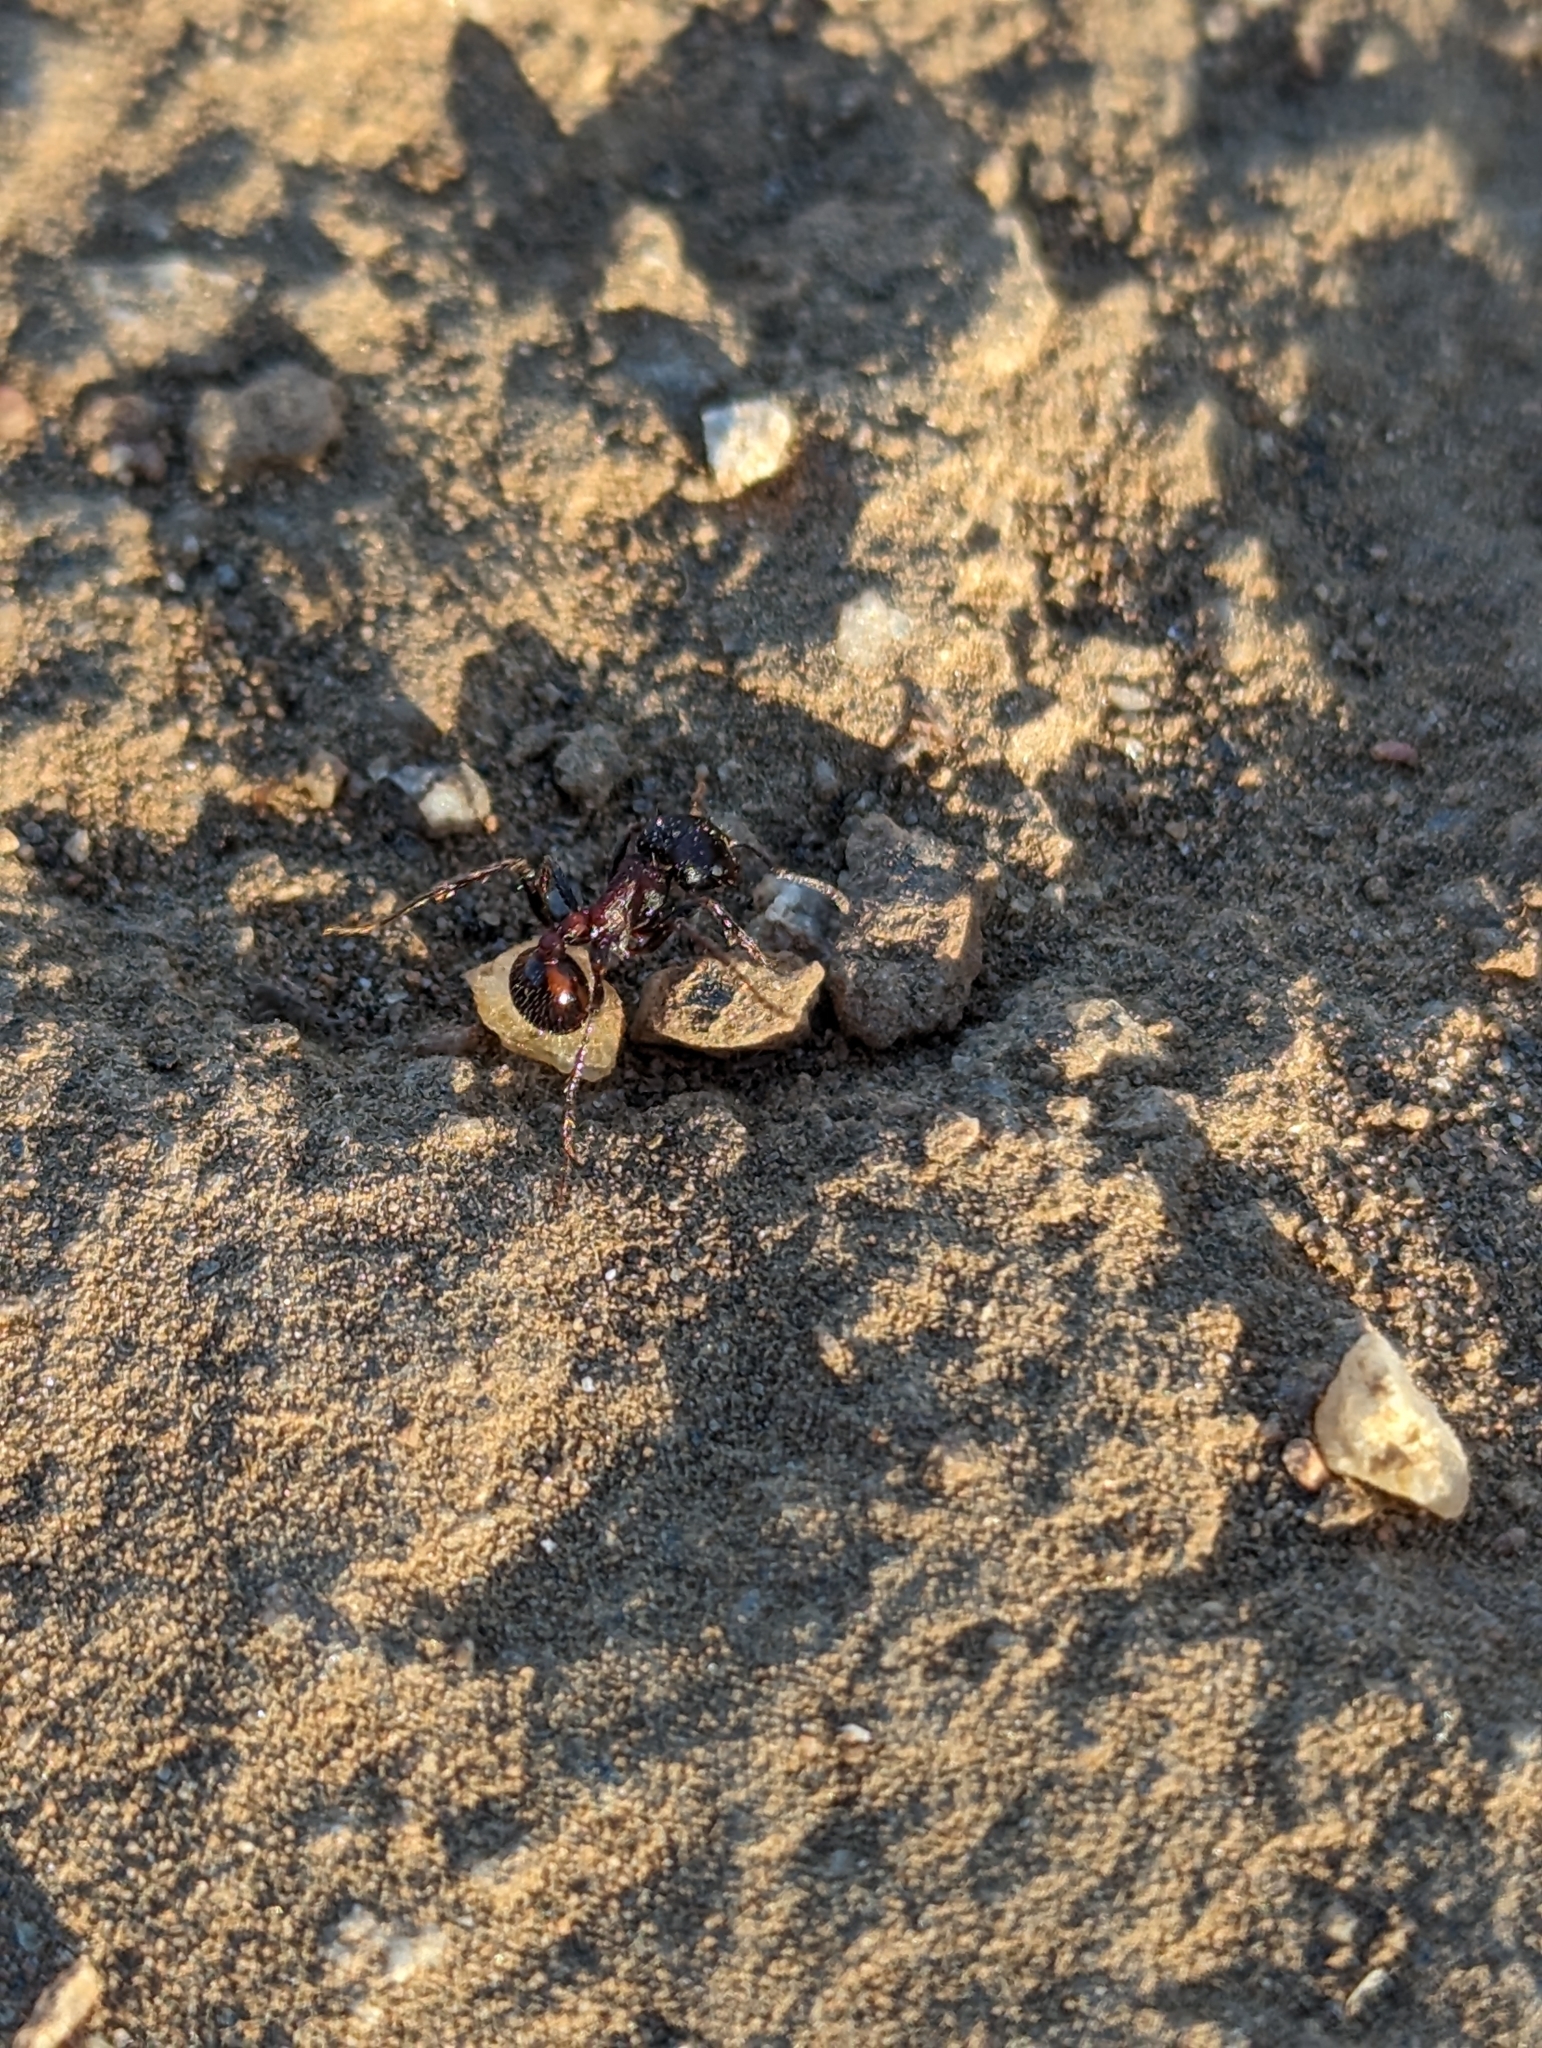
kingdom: Animalia
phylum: Arthropoda
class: Insecta
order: Hymenoptera
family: Formicidae
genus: Pogonomyrmex
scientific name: Pogonomyrmex rugosus
